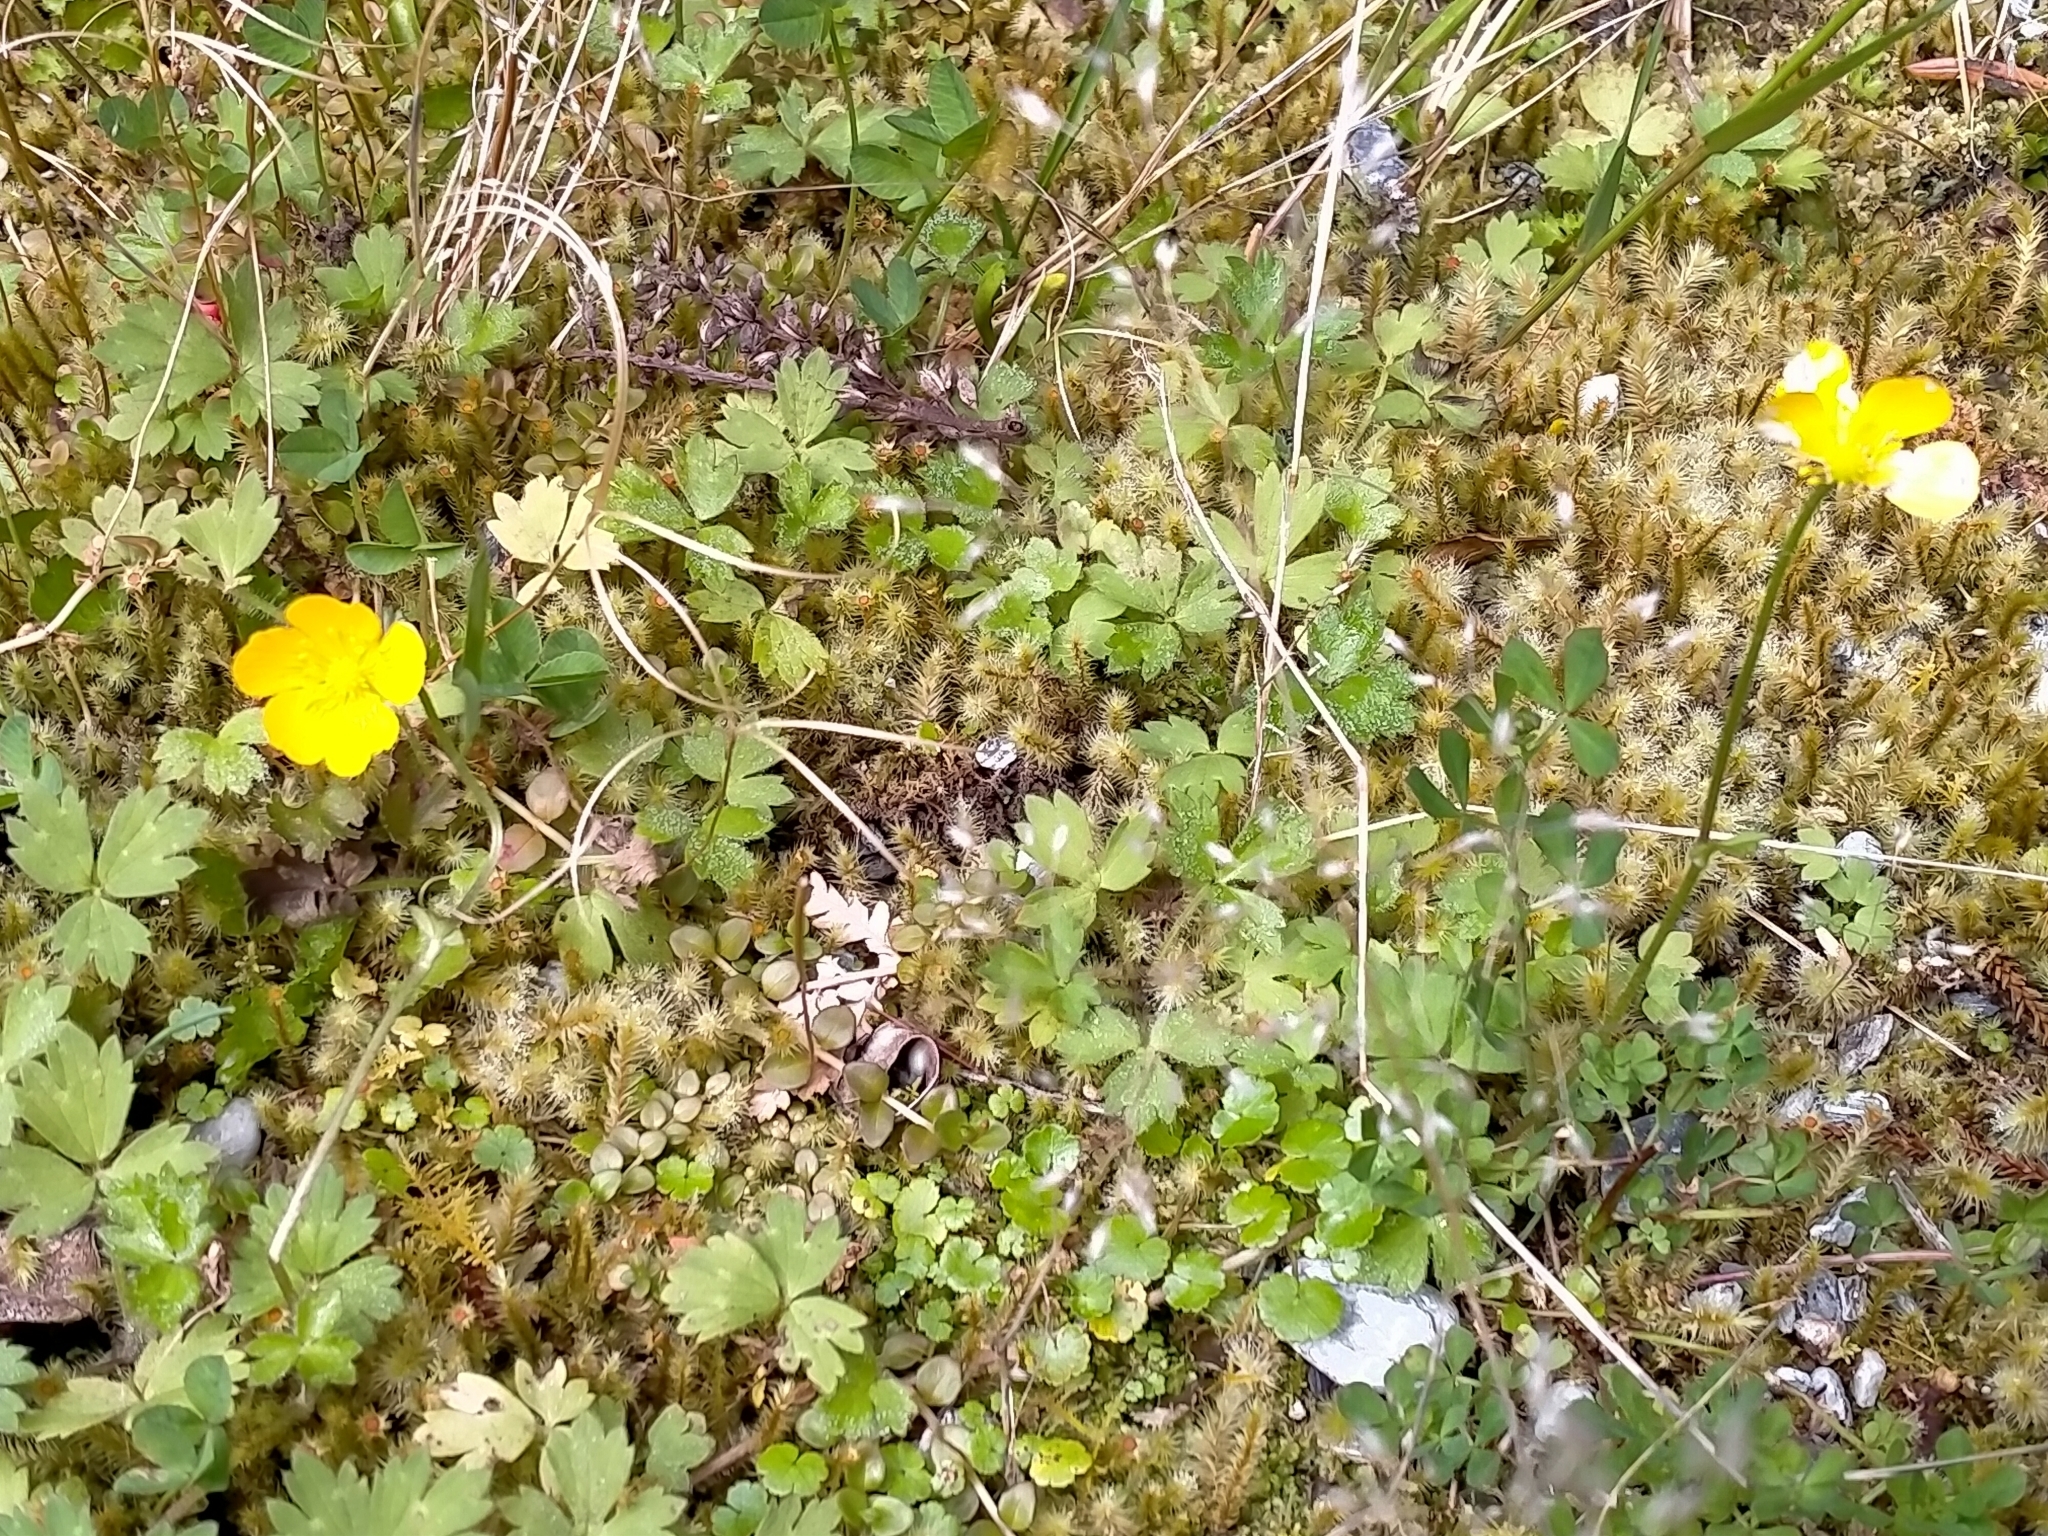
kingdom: Plantae
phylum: Tracheophyta
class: Magnoliopsida
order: Ranunculales
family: Ranunculaceae
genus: Ranunculus
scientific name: Ranunculus repens
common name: Creeping buttercup
